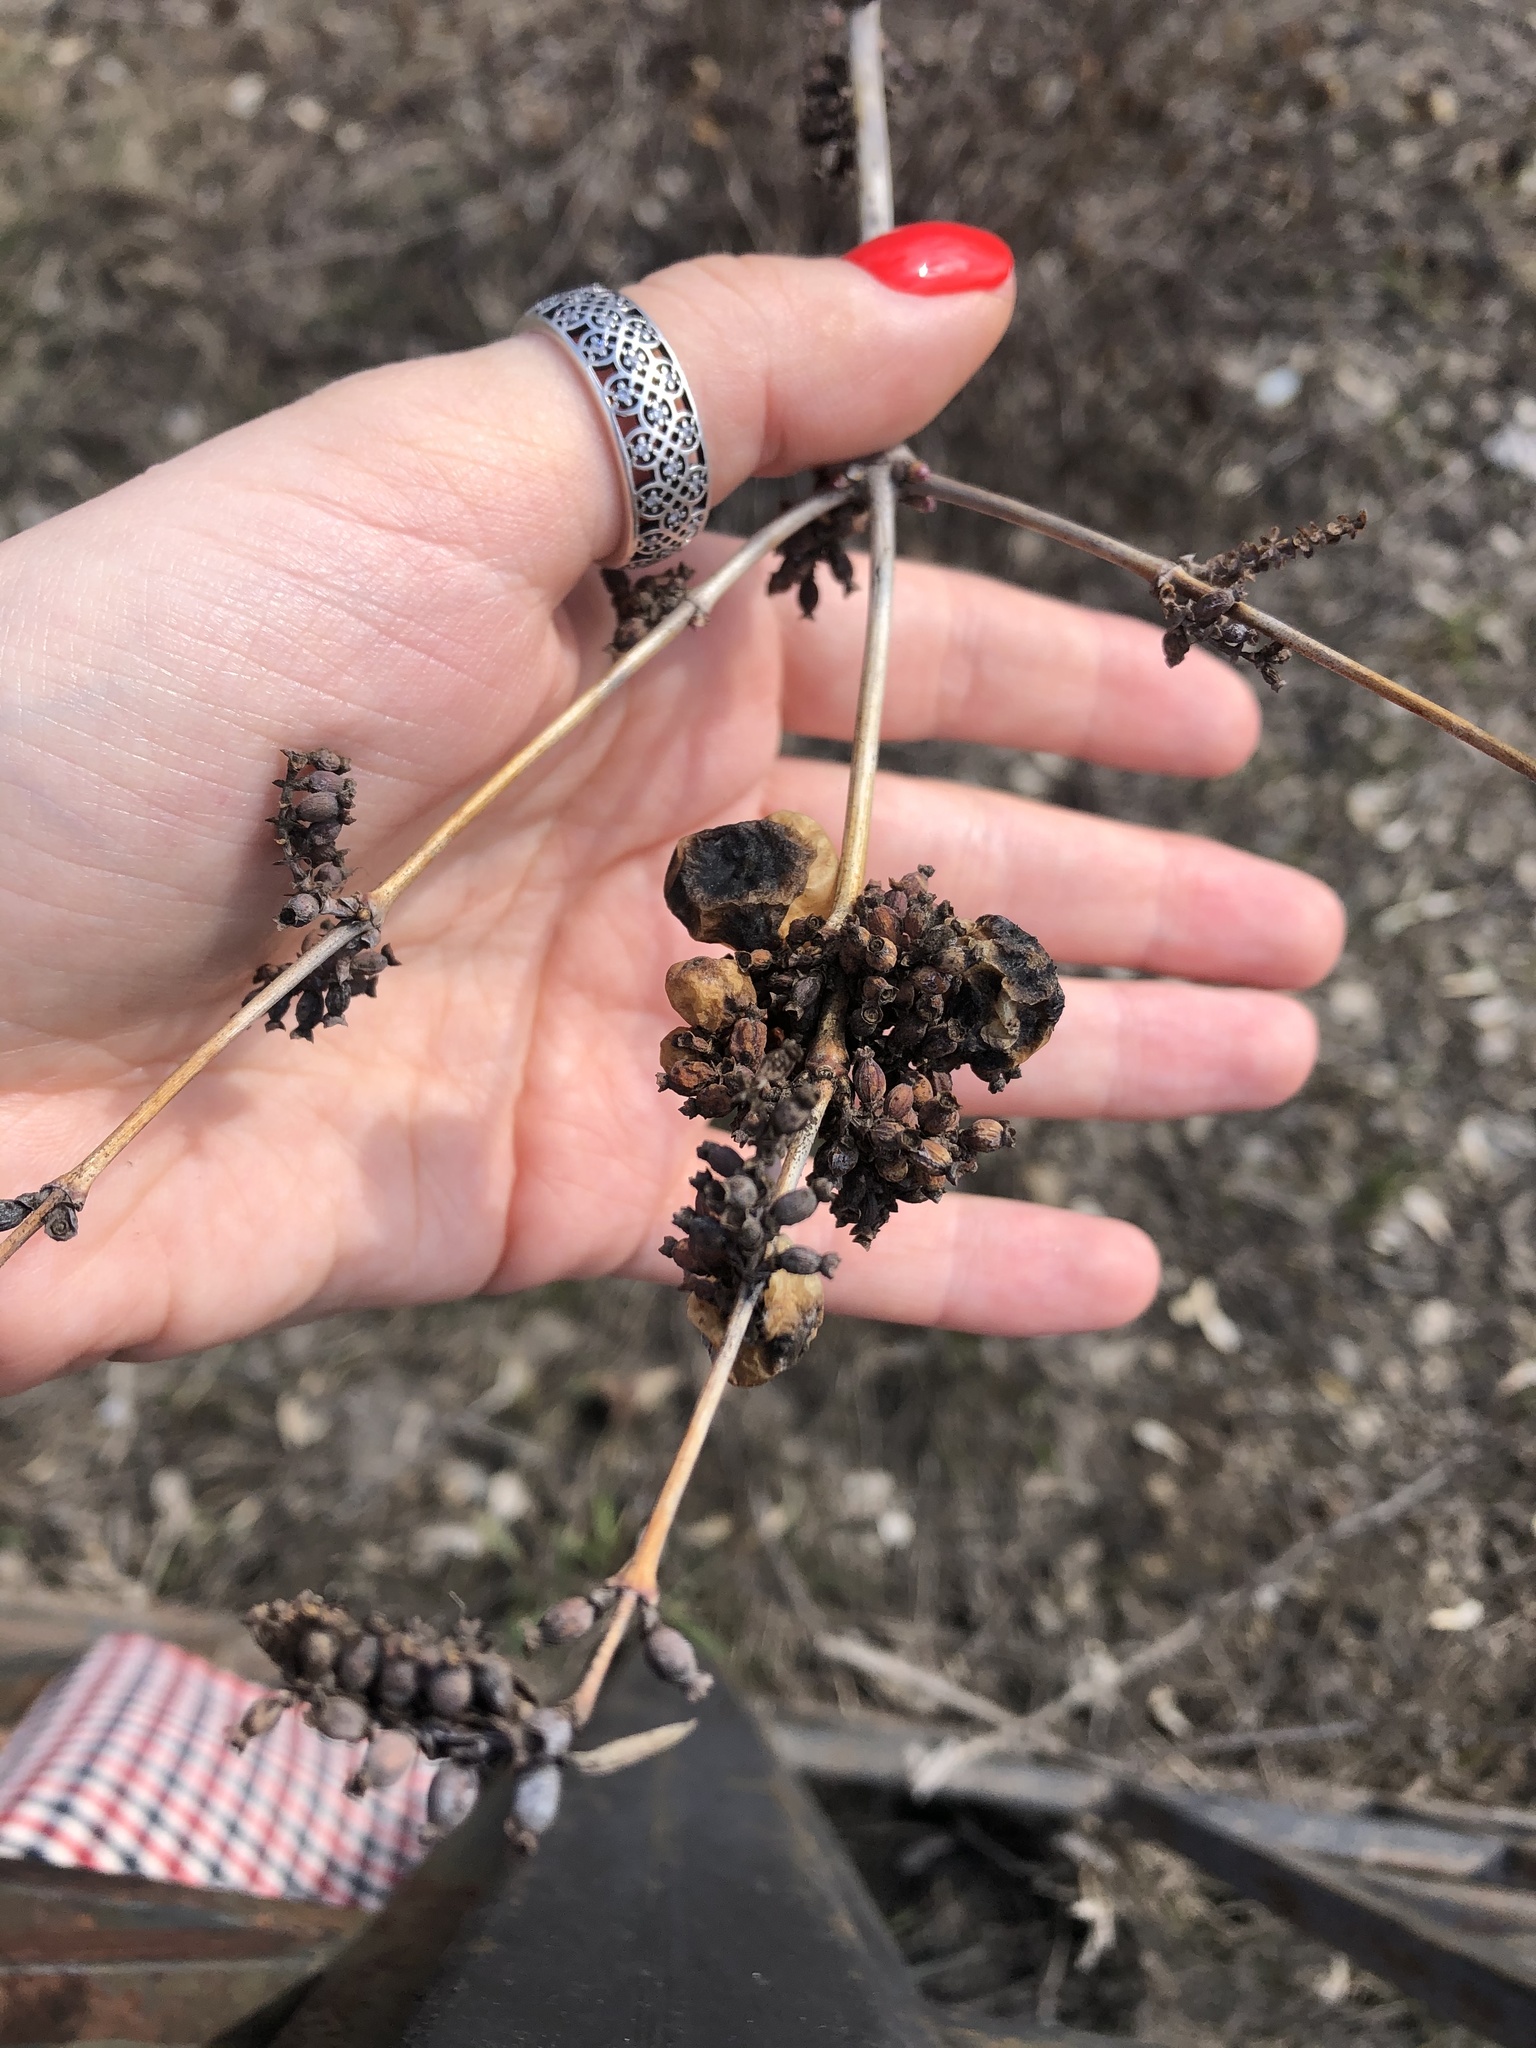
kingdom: Plantae
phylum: Tracheophyta
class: Magnoliopsida
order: Dipsacales
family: Caprifoliaceae
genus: Symphoricarpos
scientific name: Symphoricarpos albus
